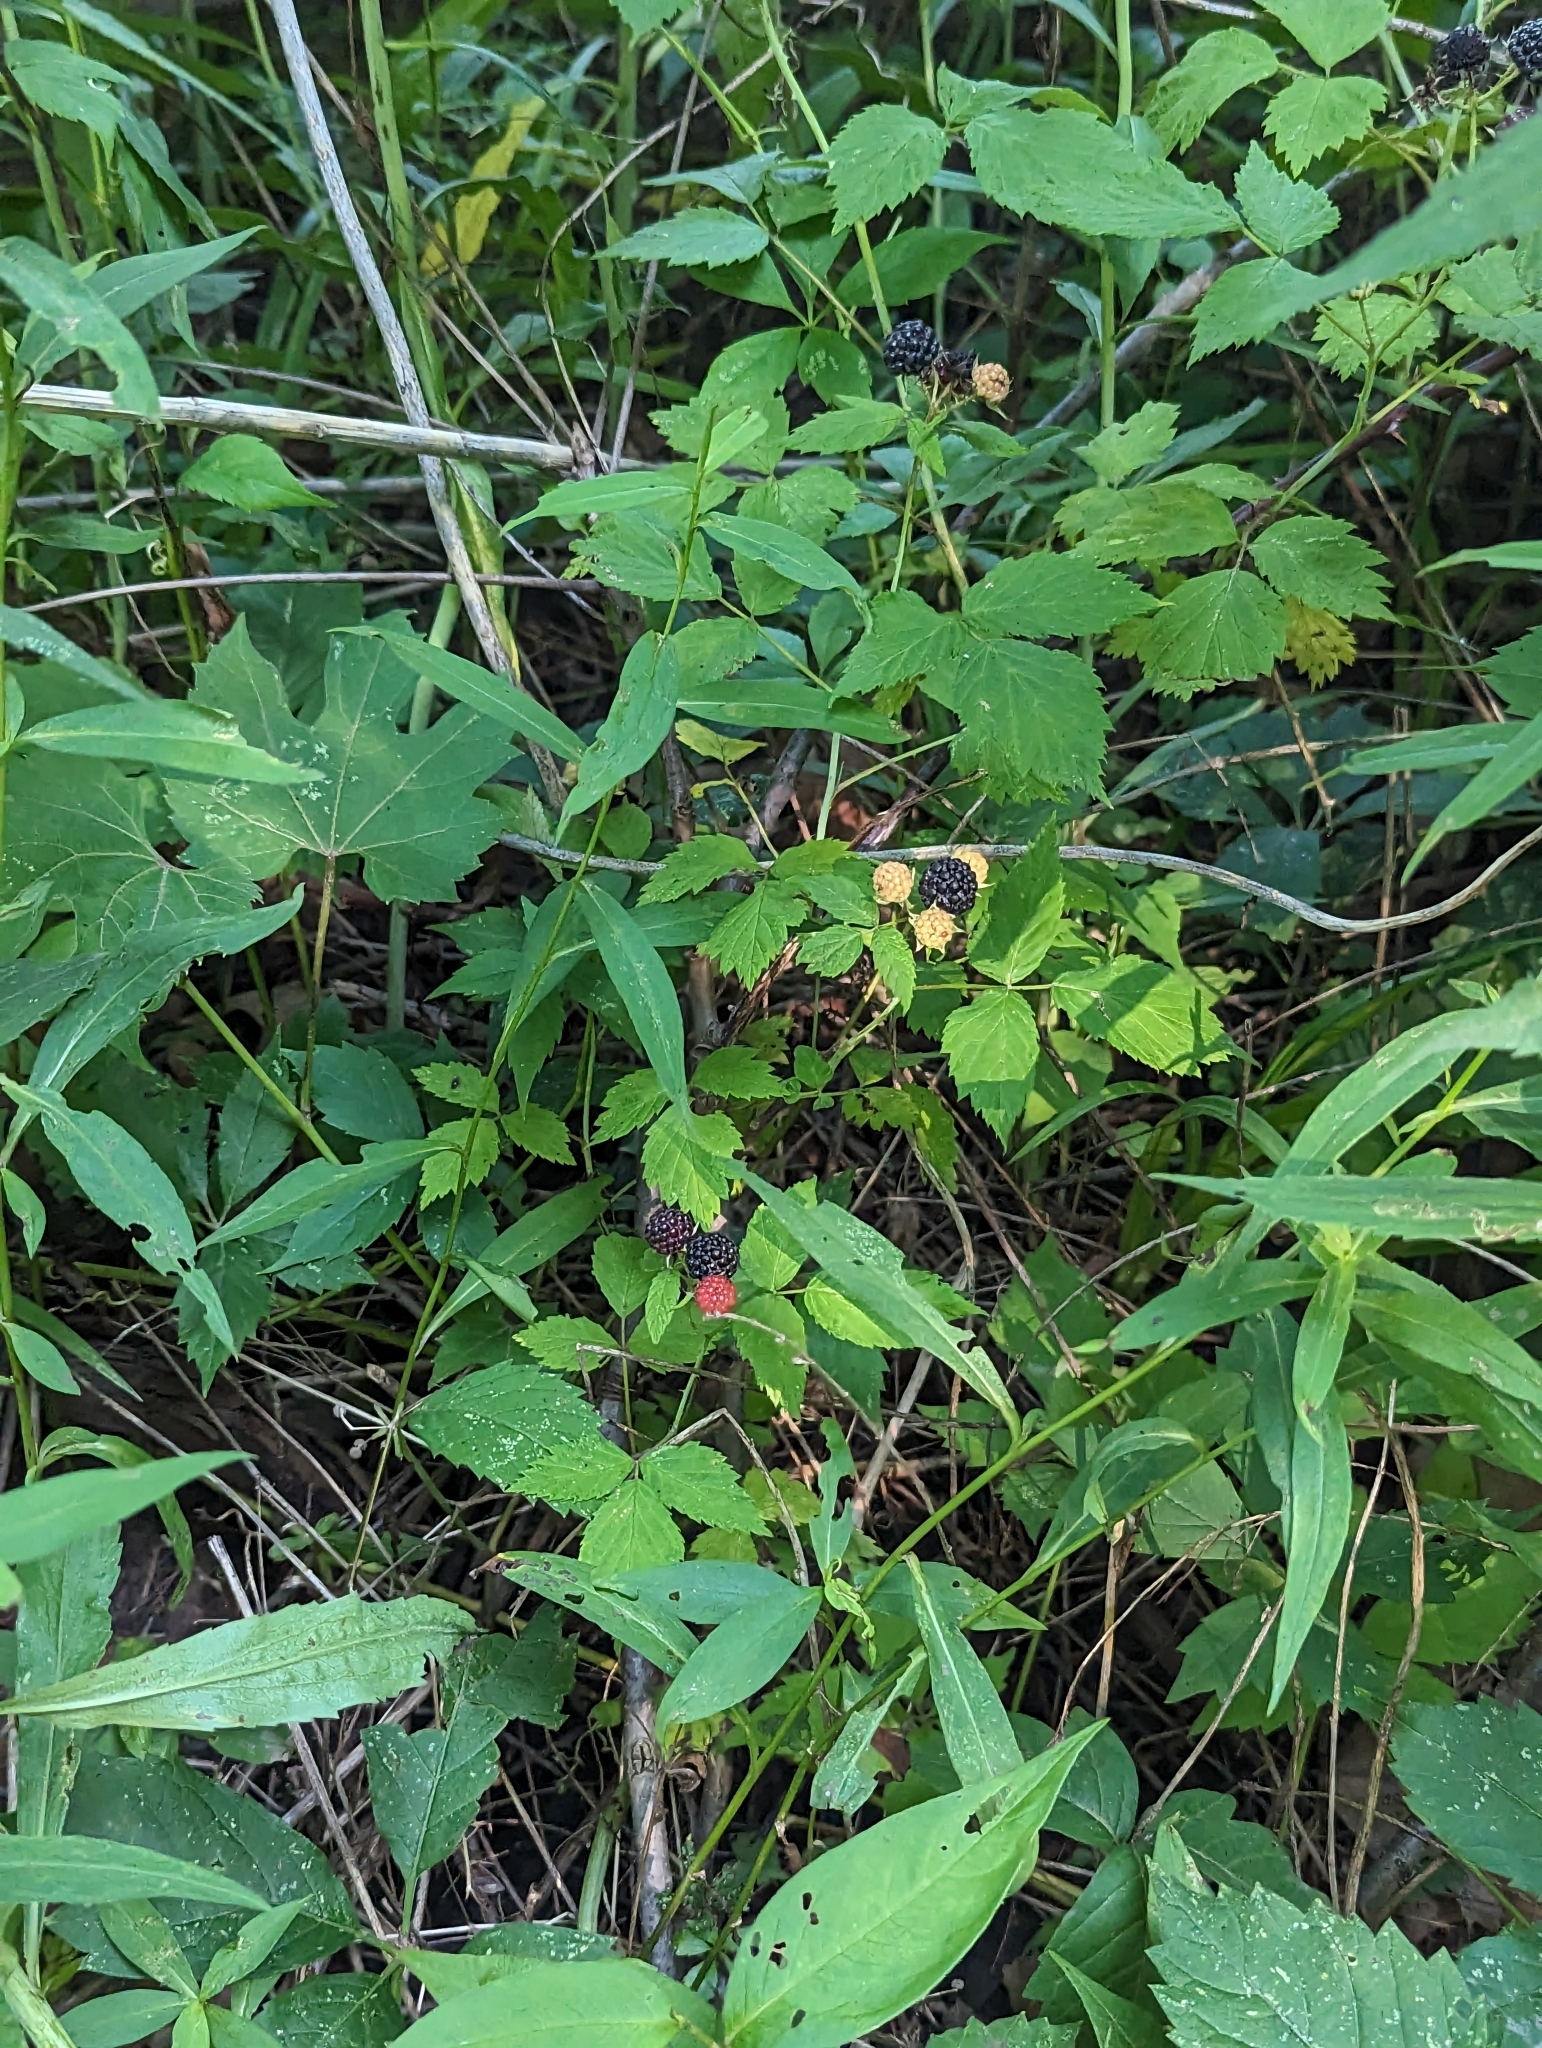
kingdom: Plantae
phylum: Tracheophyta
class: Magnoliopsida
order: Rosales
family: Rosaceae
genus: Rubus
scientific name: Rubus occidentalis
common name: Black raspberry
